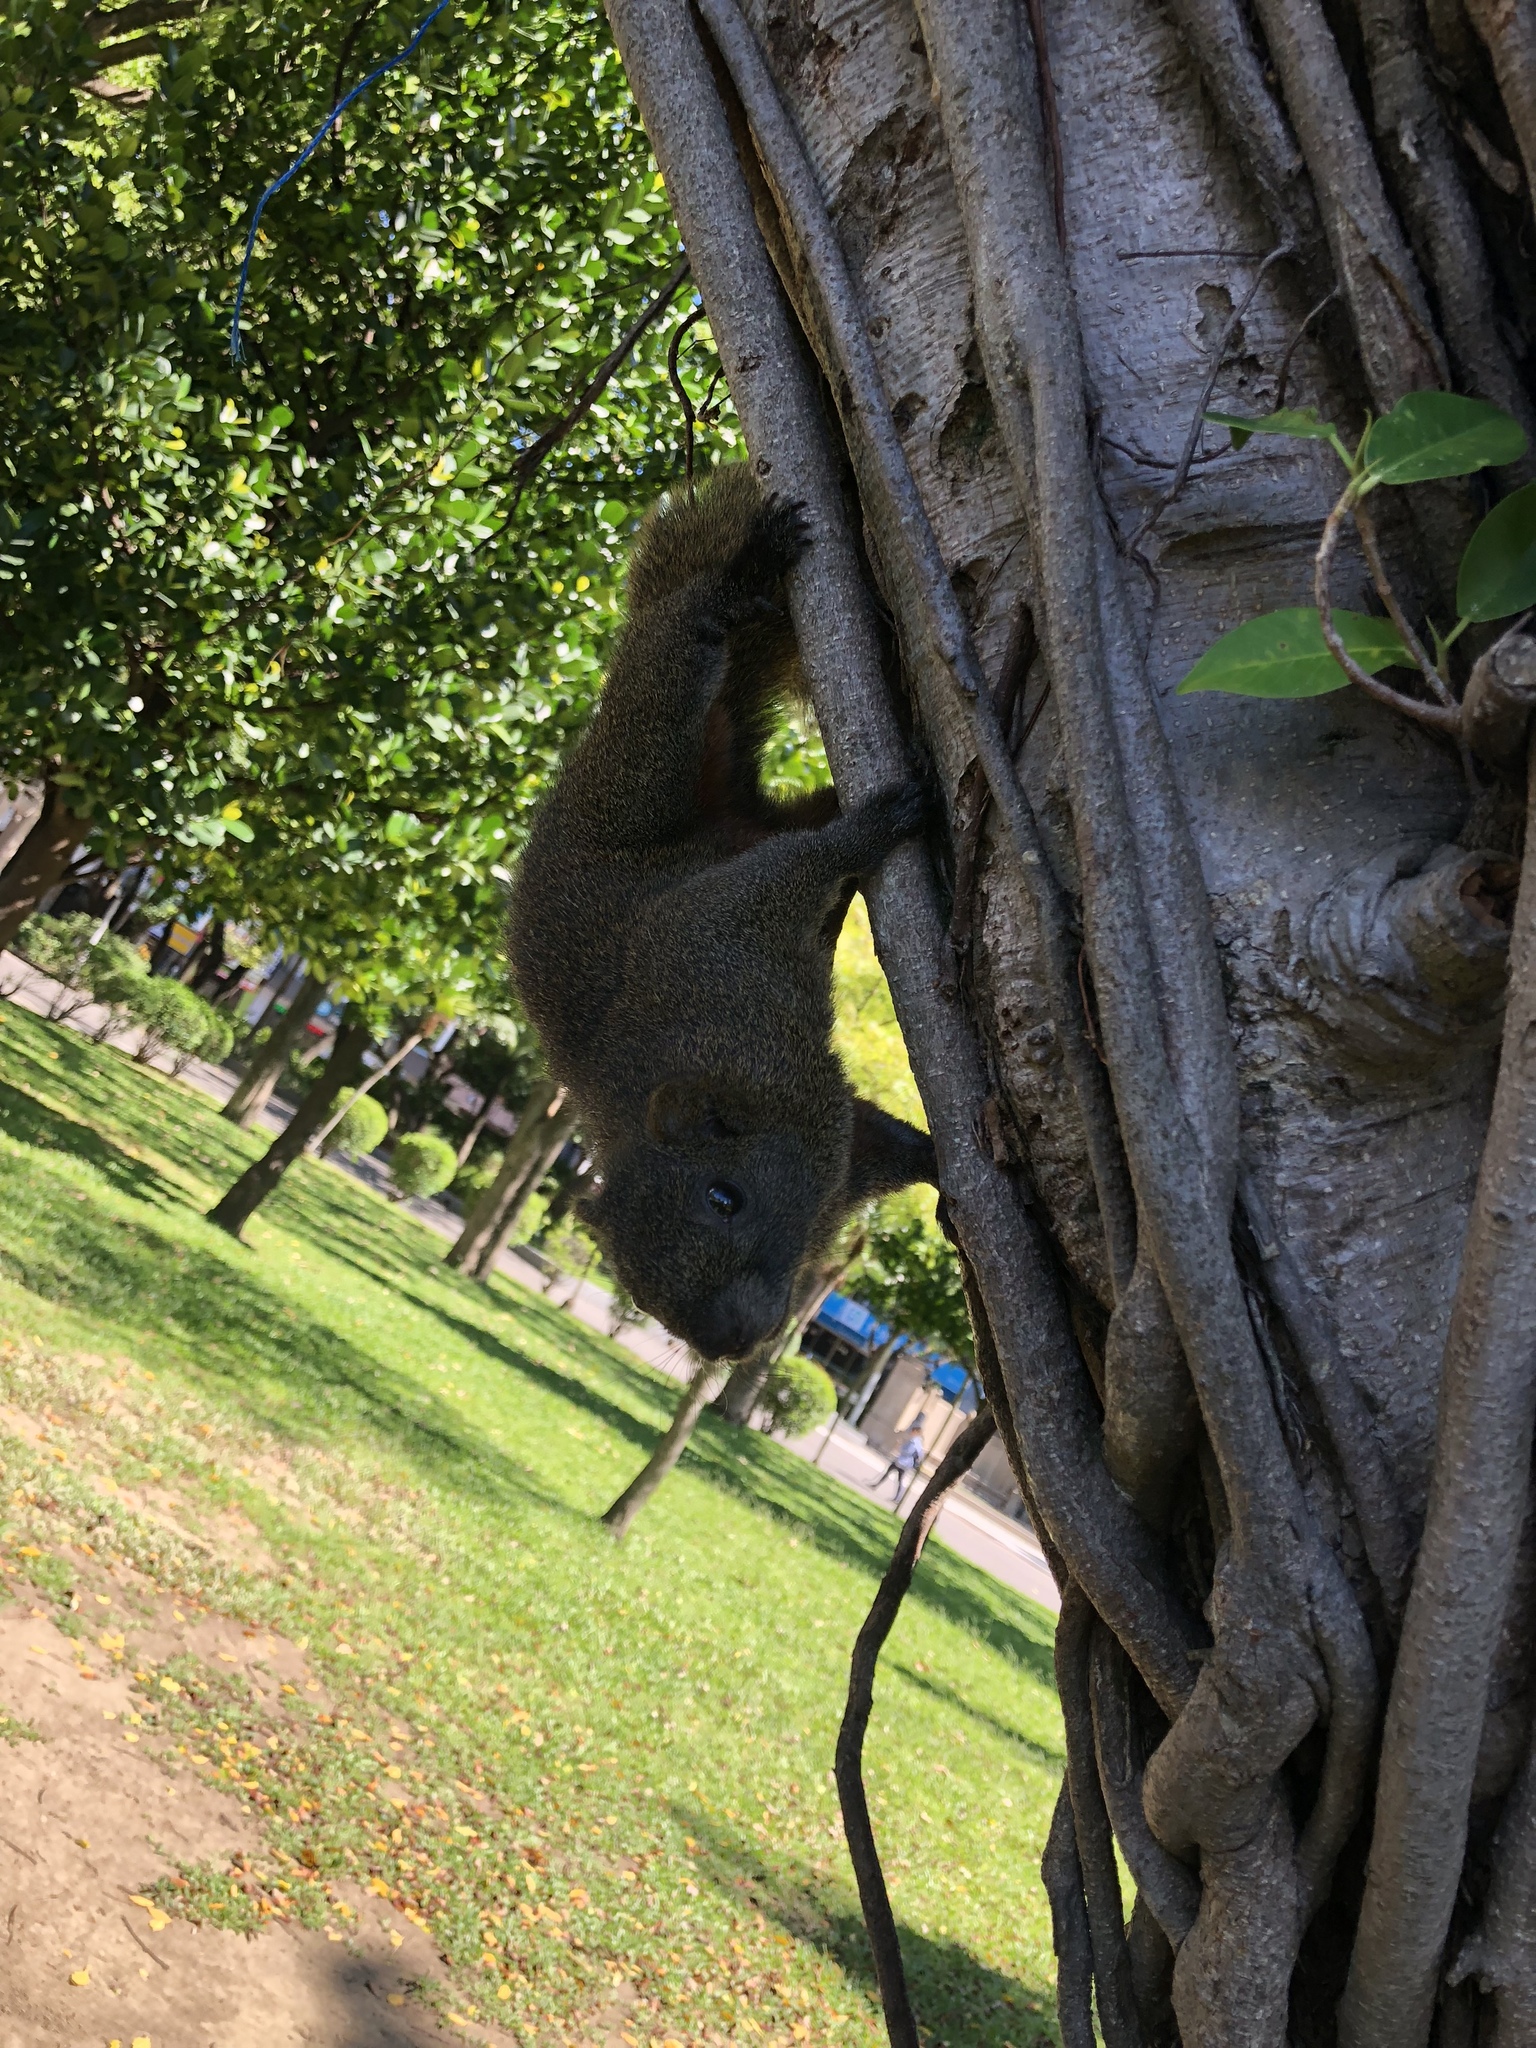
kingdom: Animalia
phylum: Chordata
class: Mammalia
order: Rodentia
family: Sciuridae
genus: Callosciurus
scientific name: Callosciurus erythraeus
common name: Pallas's squirrel
